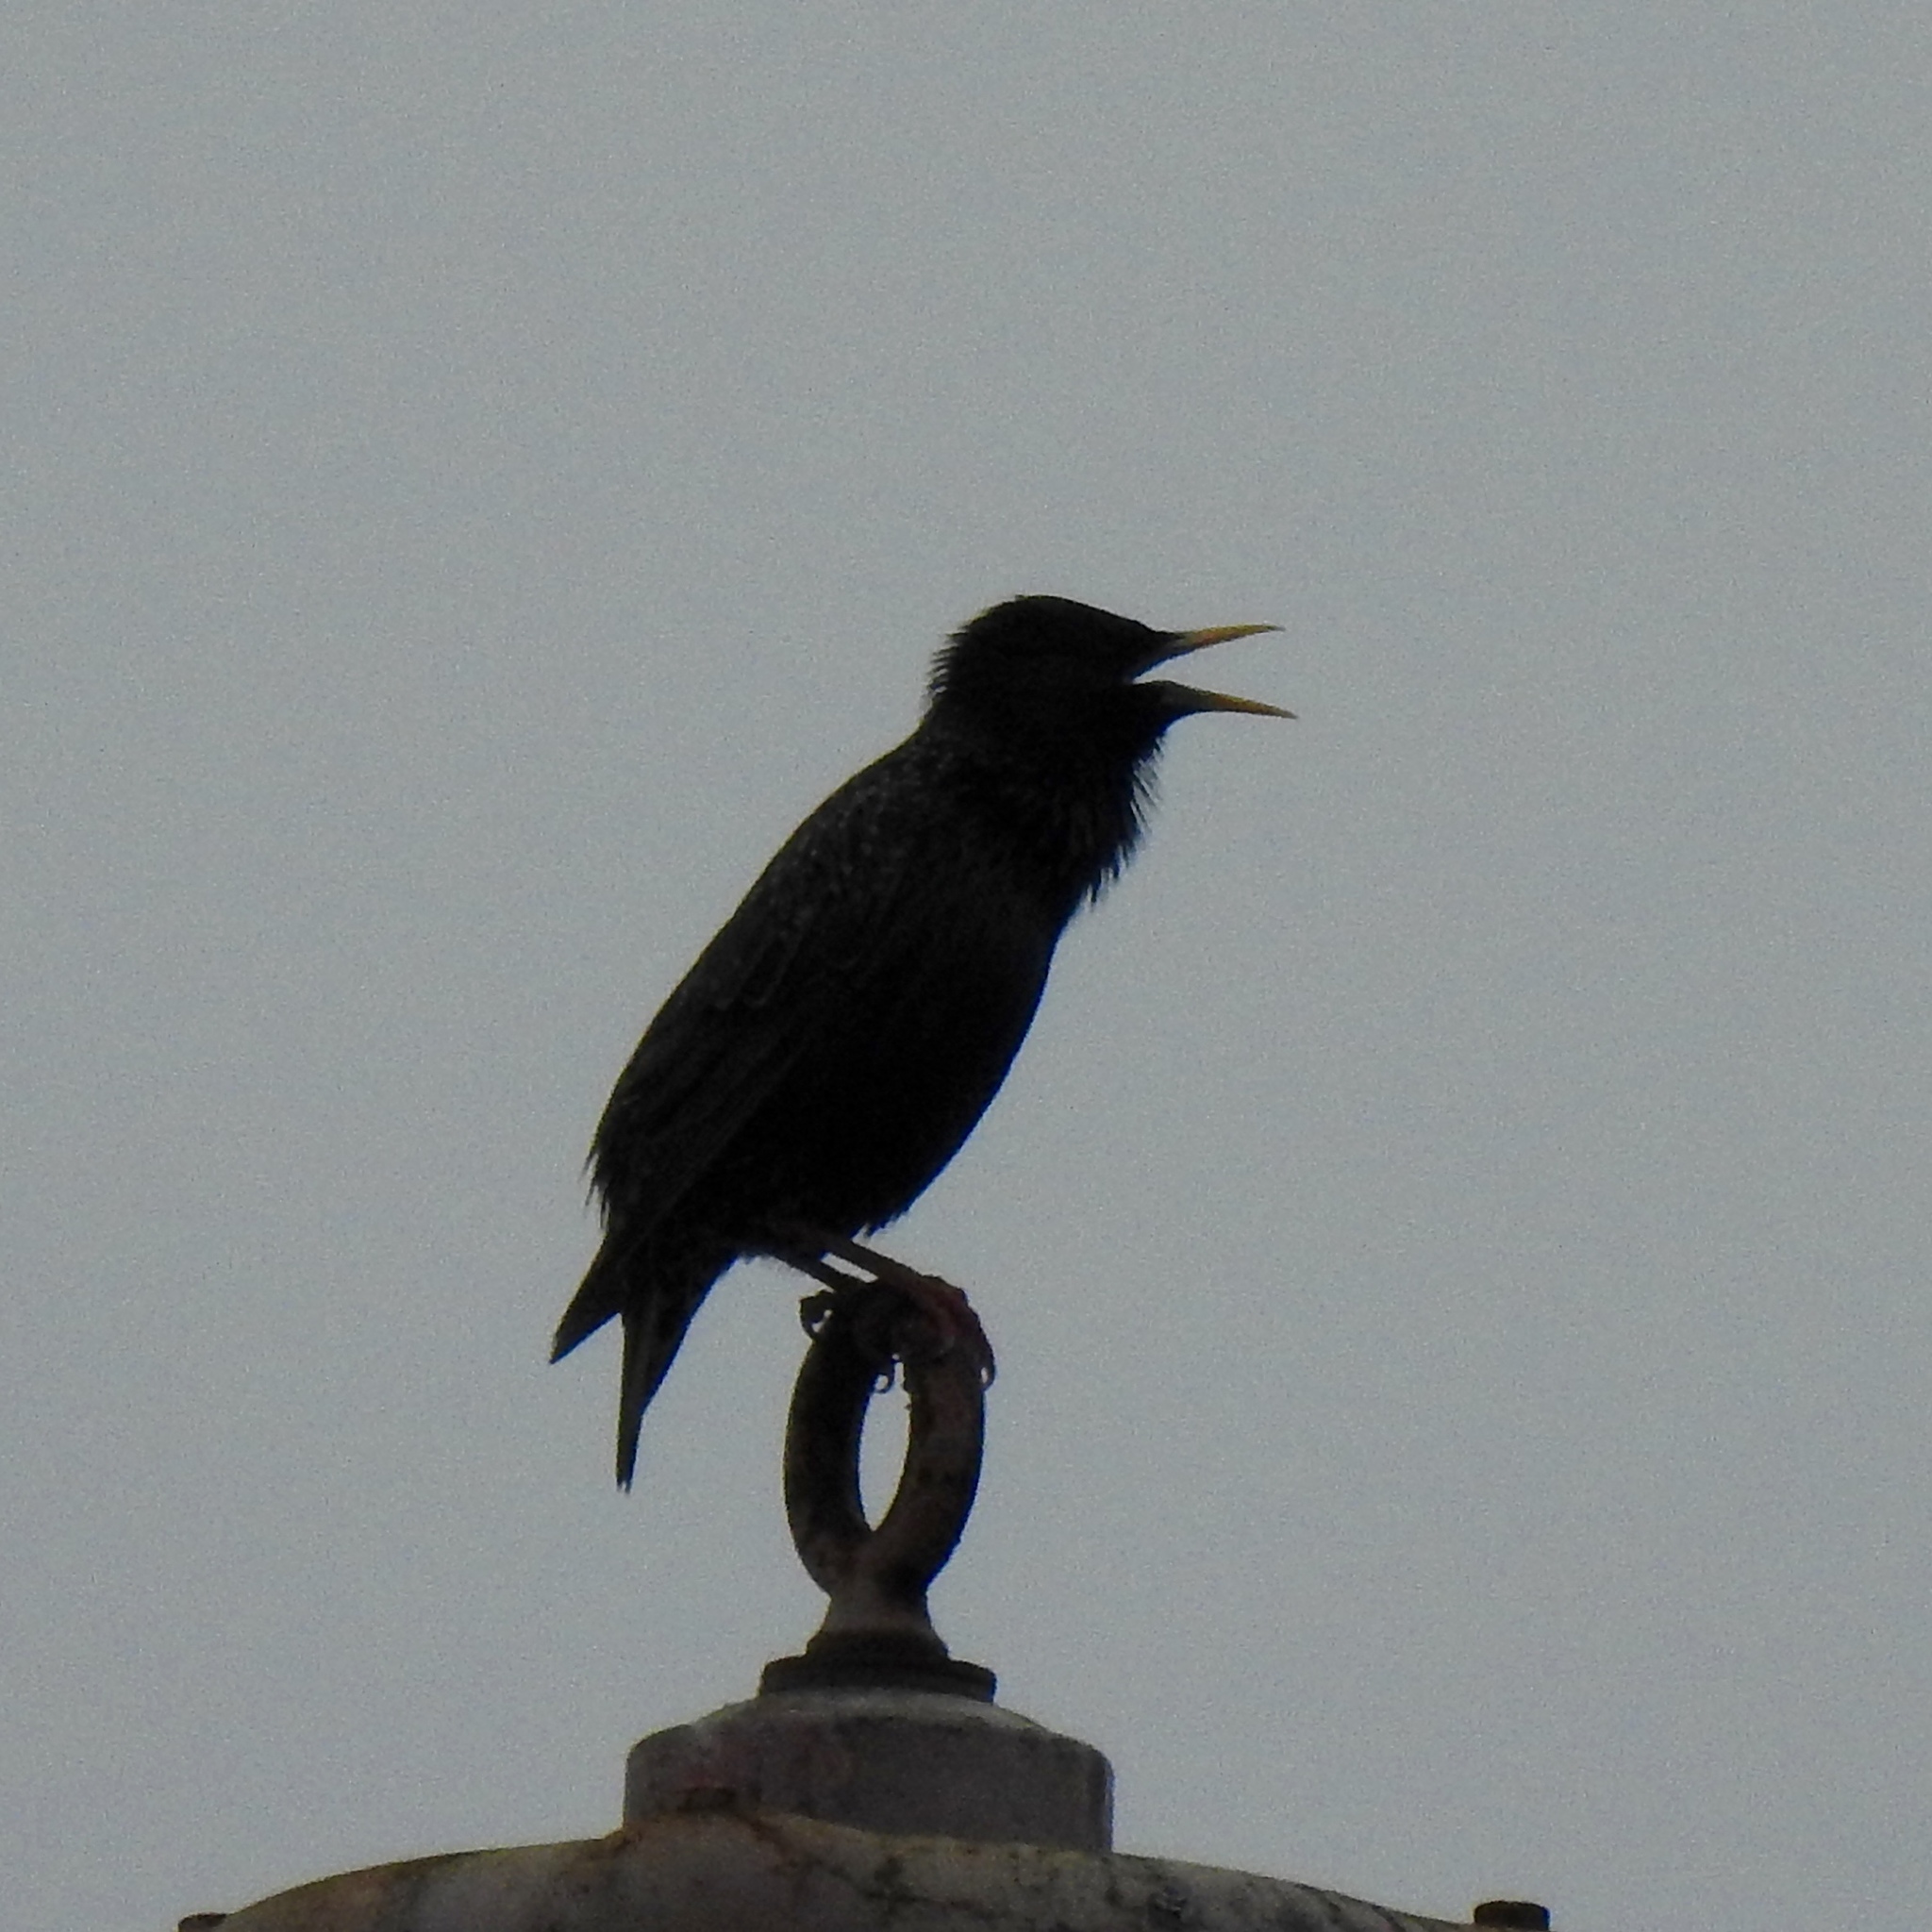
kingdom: Animalia
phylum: Chordata
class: Aves
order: Passeriformes
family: Sturnidae
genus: Sturnus
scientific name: Sturnus vulgaris
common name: Common starling
